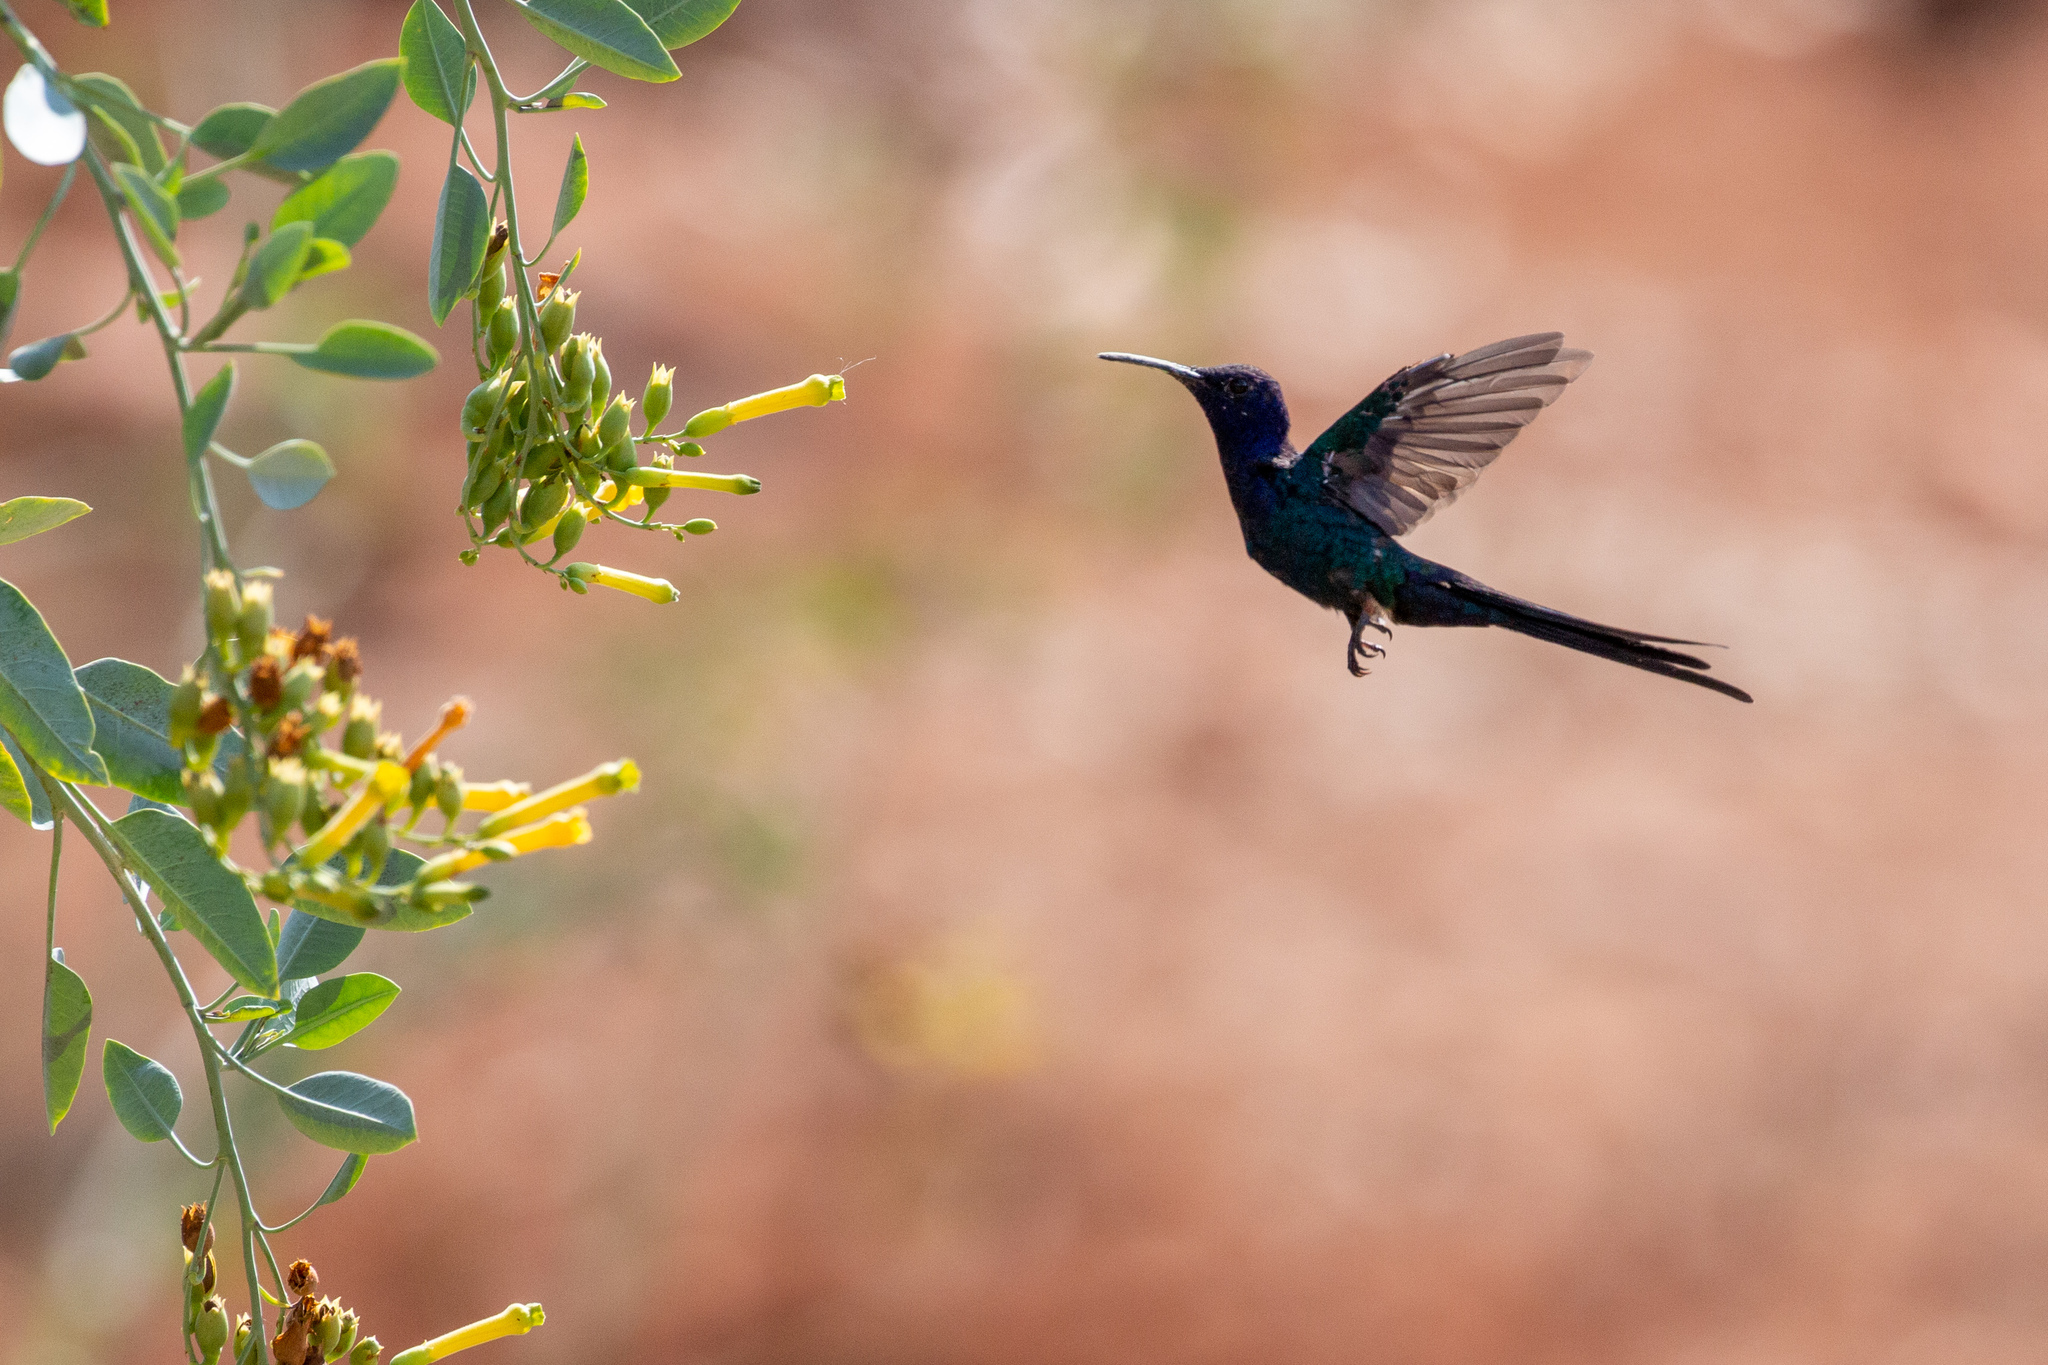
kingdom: Animalia
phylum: Chordata
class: Aves
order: Apodiformes
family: Trochilidae
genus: Eupetomena
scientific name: Eupetomena macroura
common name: Swallow-tailed hummingbird
